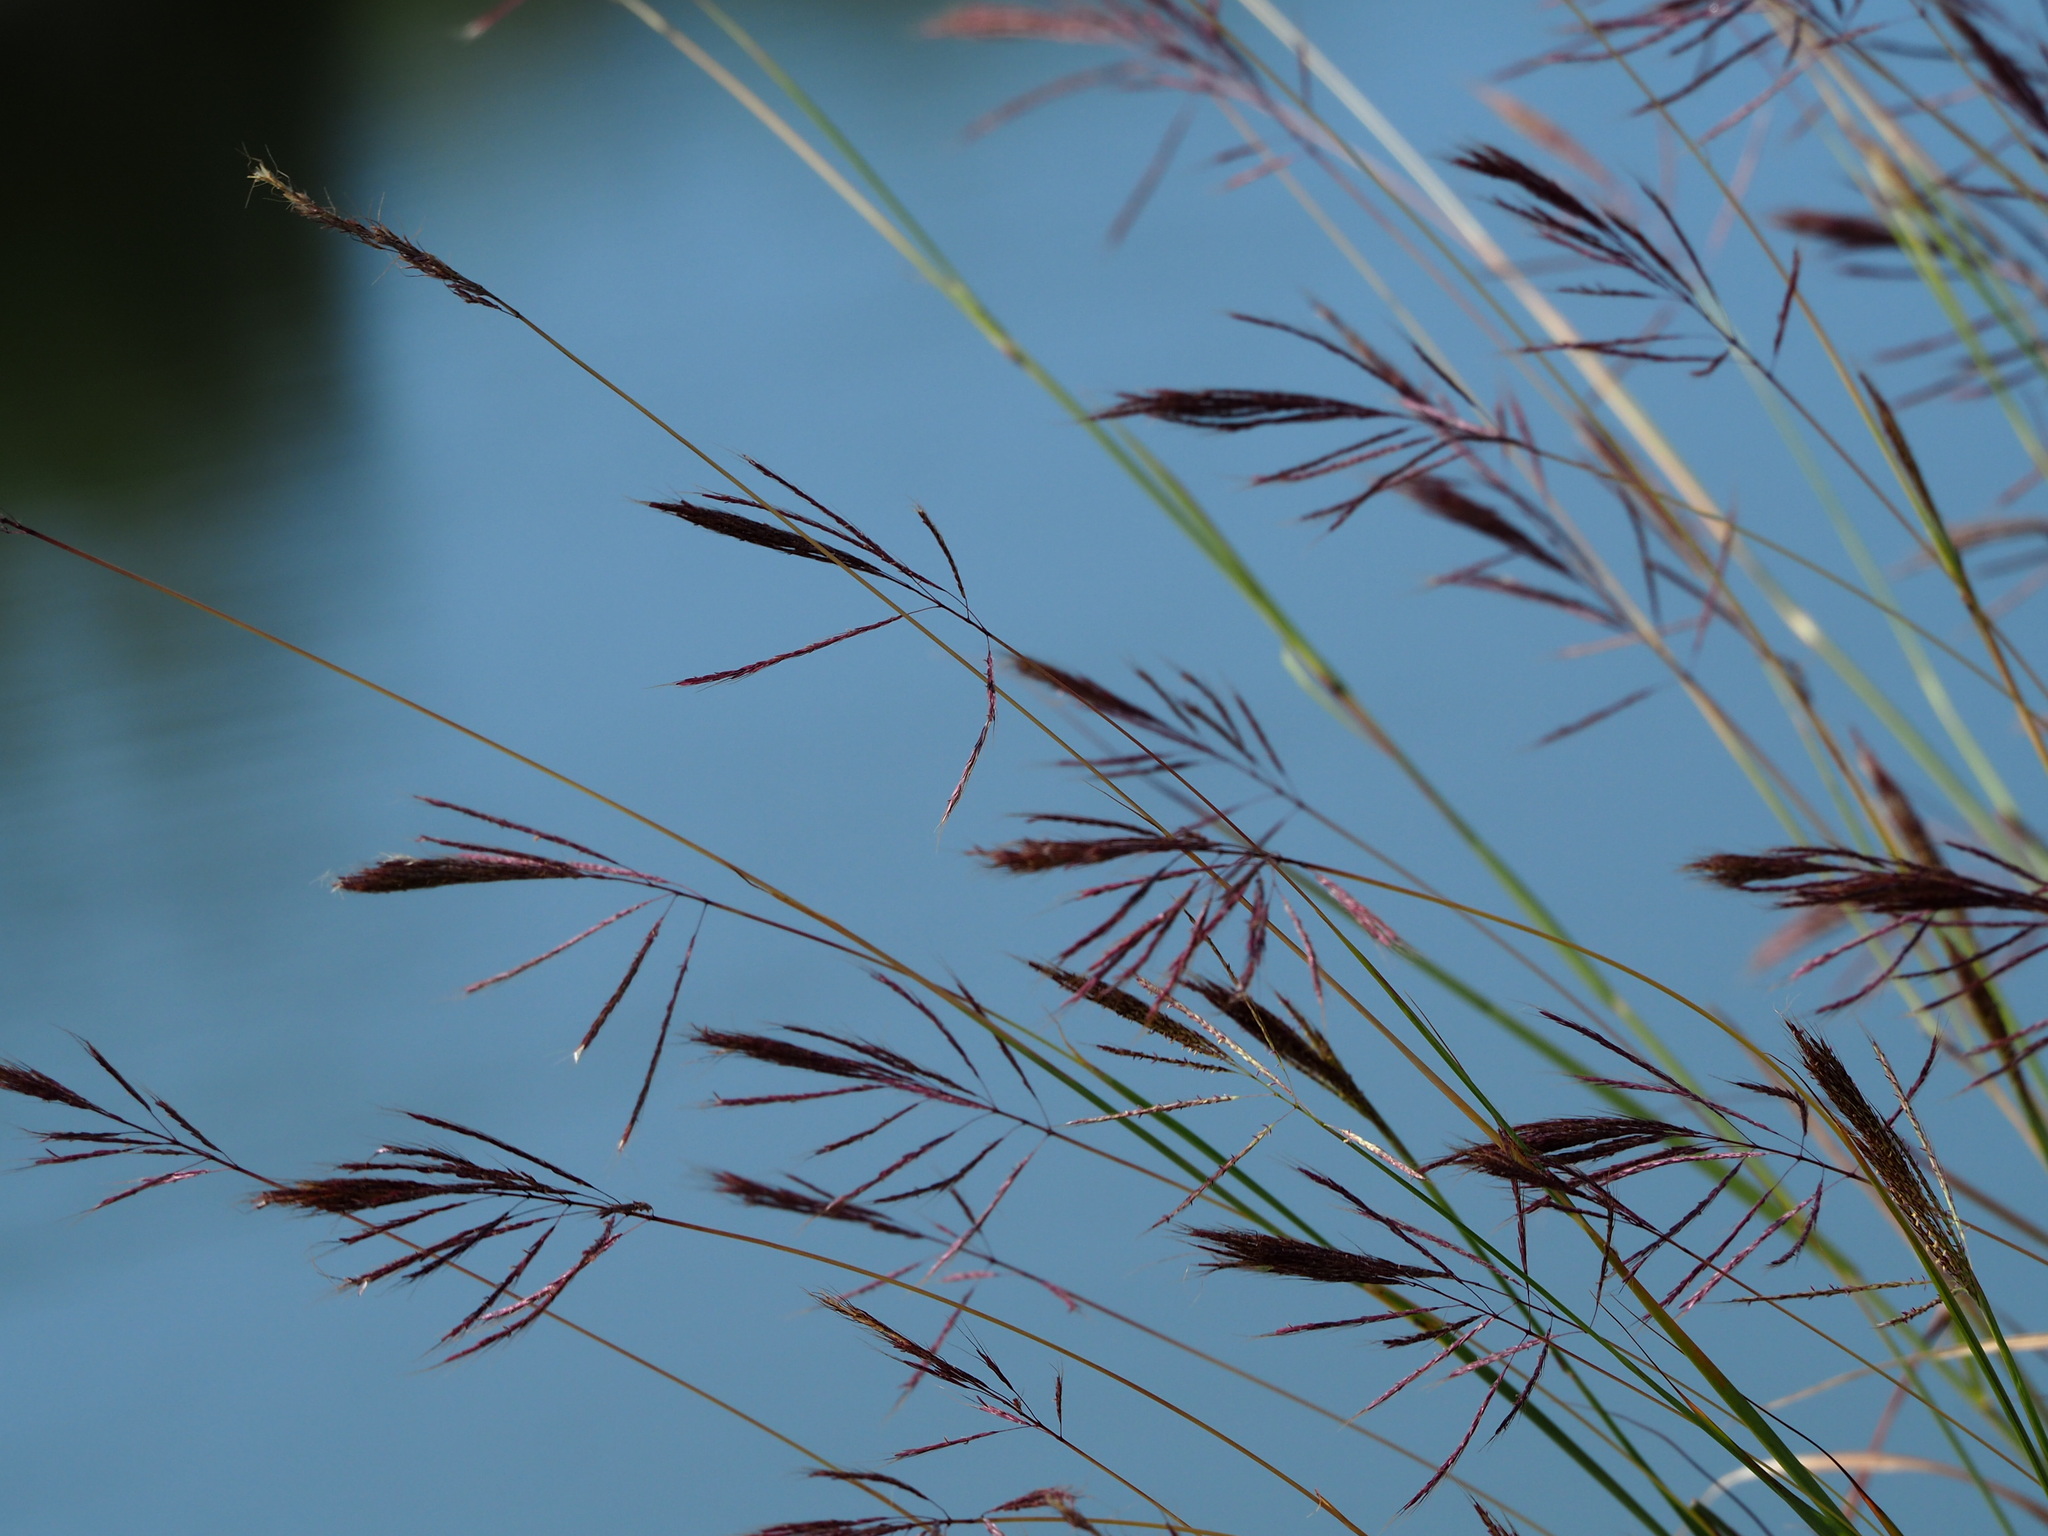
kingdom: Plantae
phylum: Tracheophyta
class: Liliopsida
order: Poales
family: Poaceae
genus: Bothriochloa
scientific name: Bothriochloa glabra
